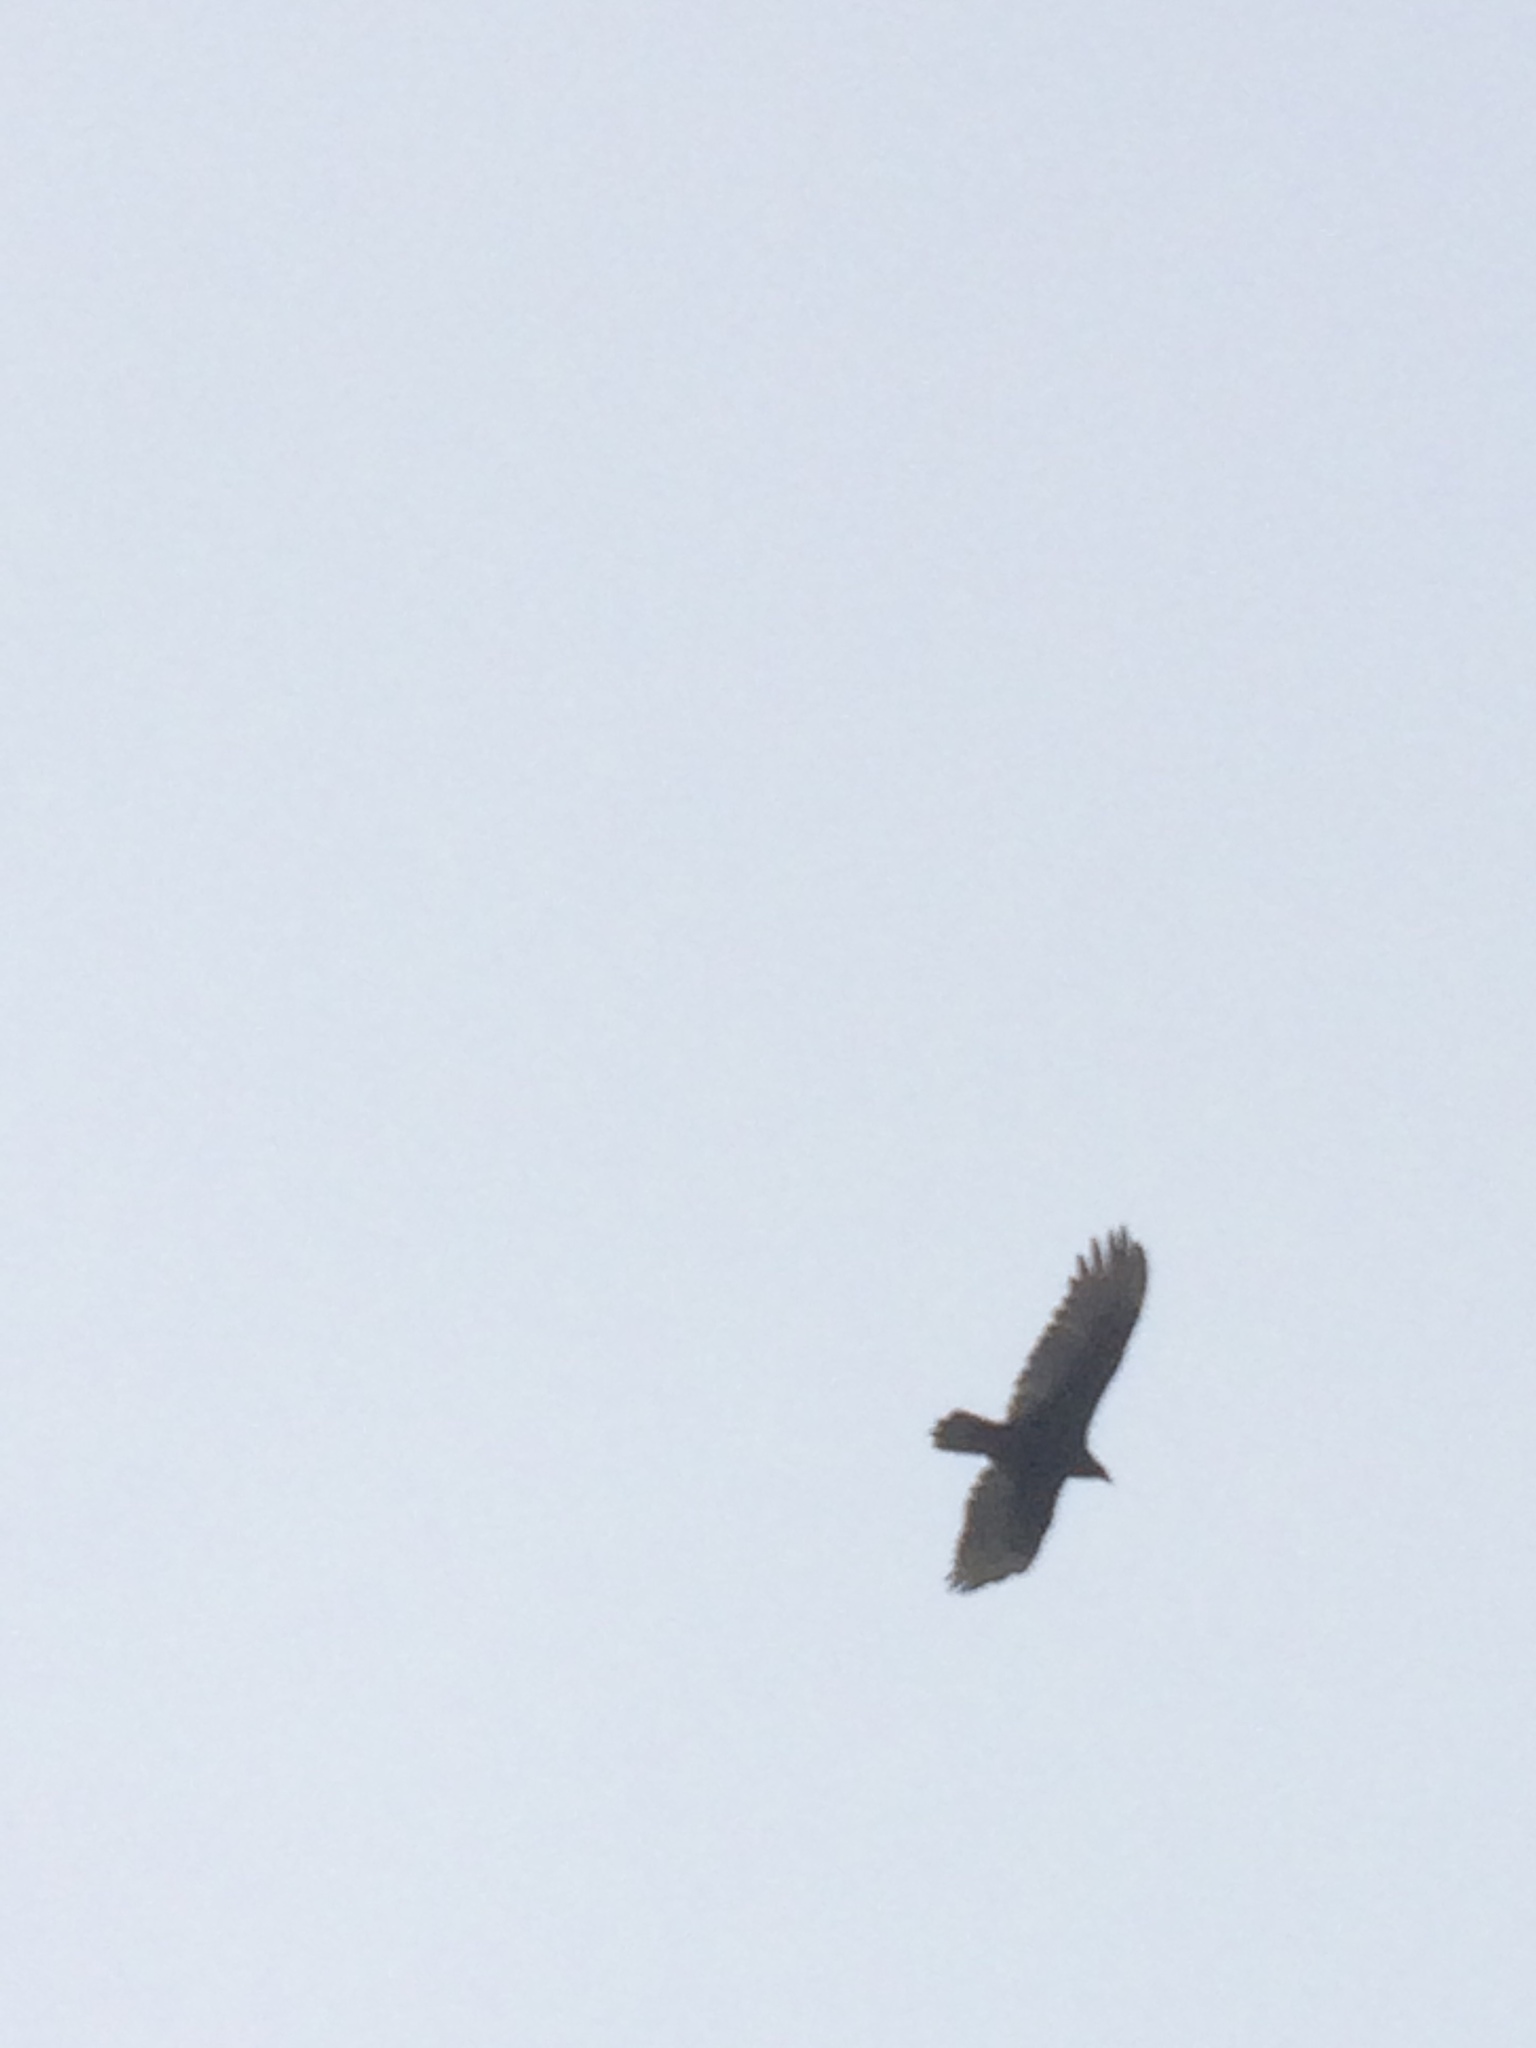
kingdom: Animalia
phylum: Chordata
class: Aves
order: Accipitriformes
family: Cathartidae
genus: Cathartes
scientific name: Cathartes aura
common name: Turkey vulture
